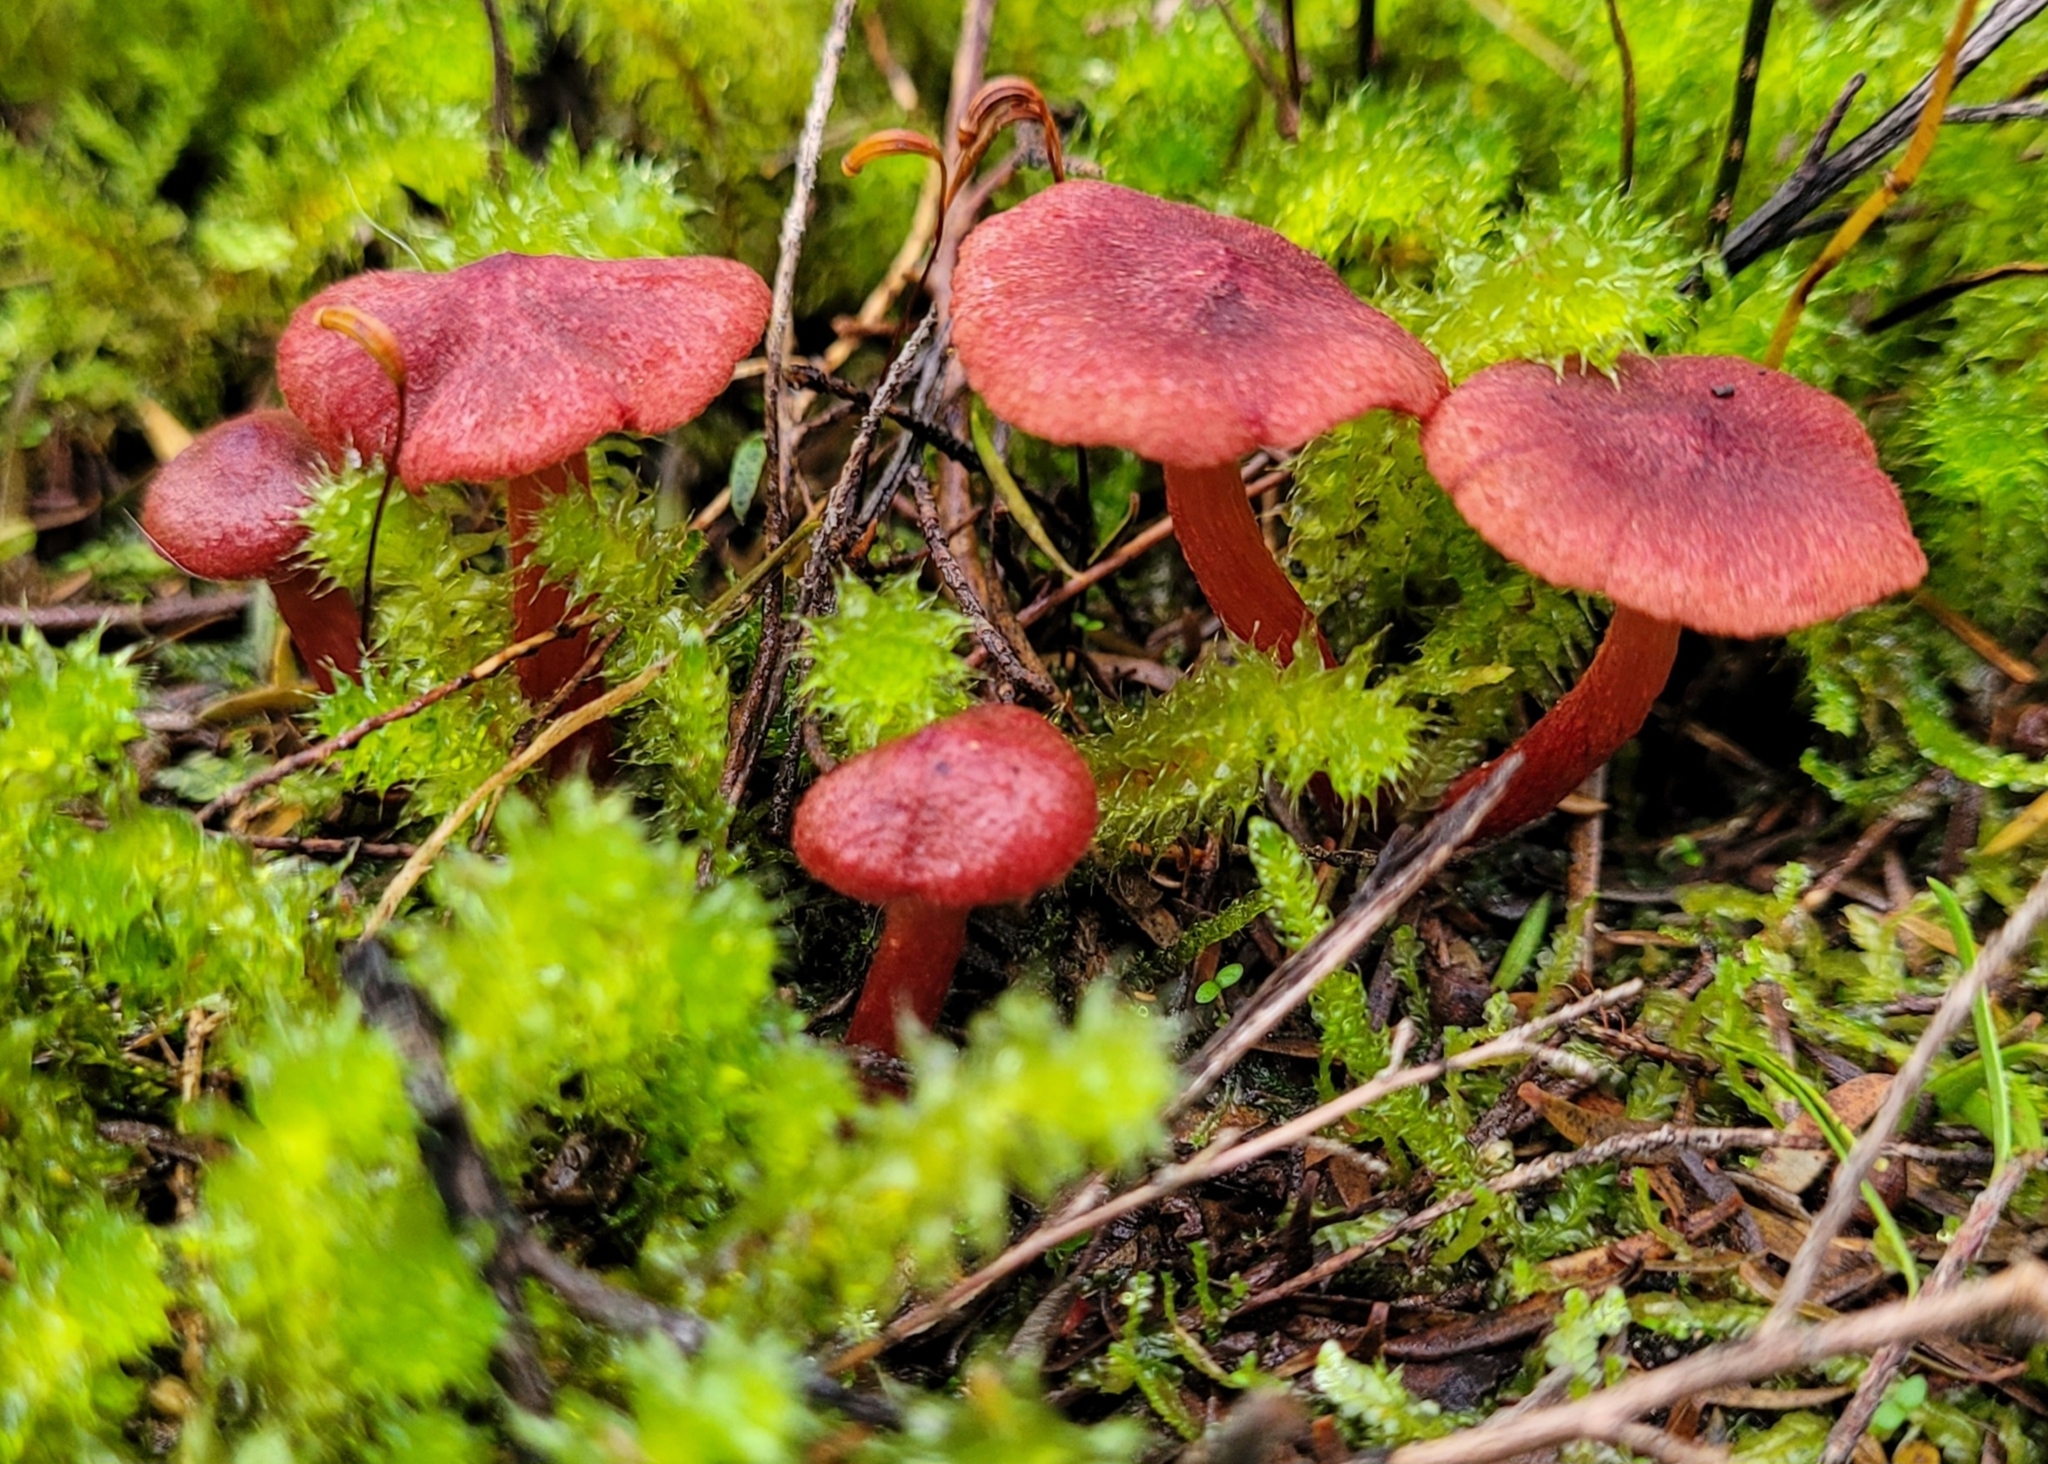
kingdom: Fungi
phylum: Basidiomycota
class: Agaricomycetes
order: Agaricales
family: Cortinariaceae
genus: Cortinarius
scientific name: Cortinarius cruentoides
